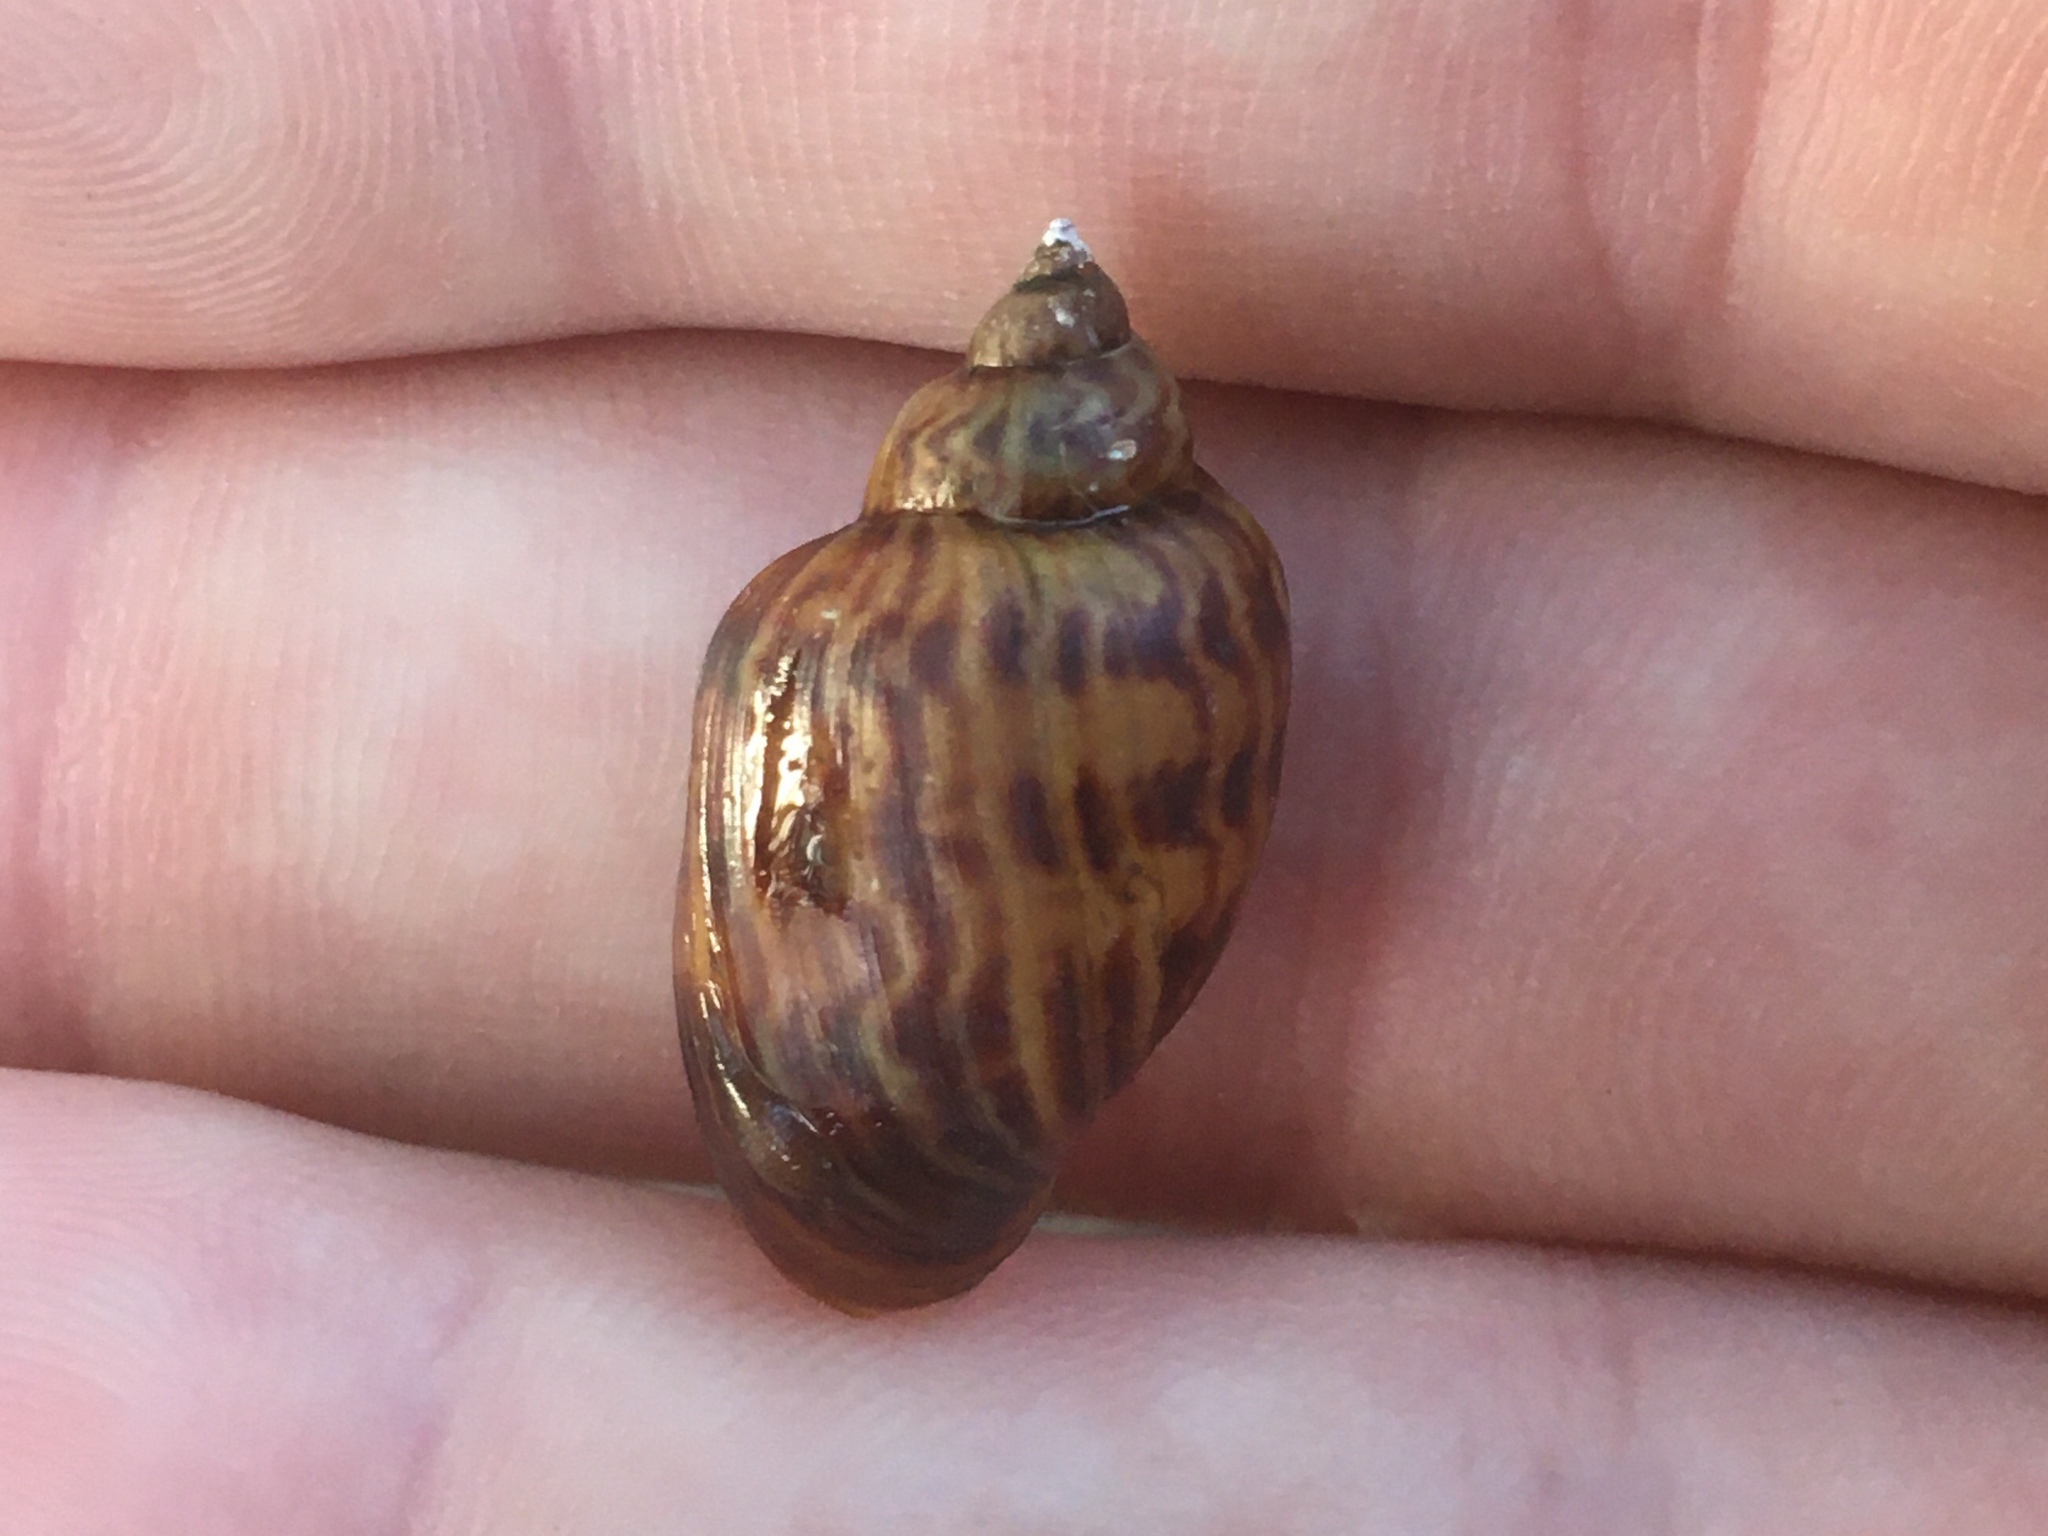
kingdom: Animalia
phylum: Mollusca
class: Gastropoda
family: Chilinidae
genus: Chilina
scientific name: Chilina parchappii
